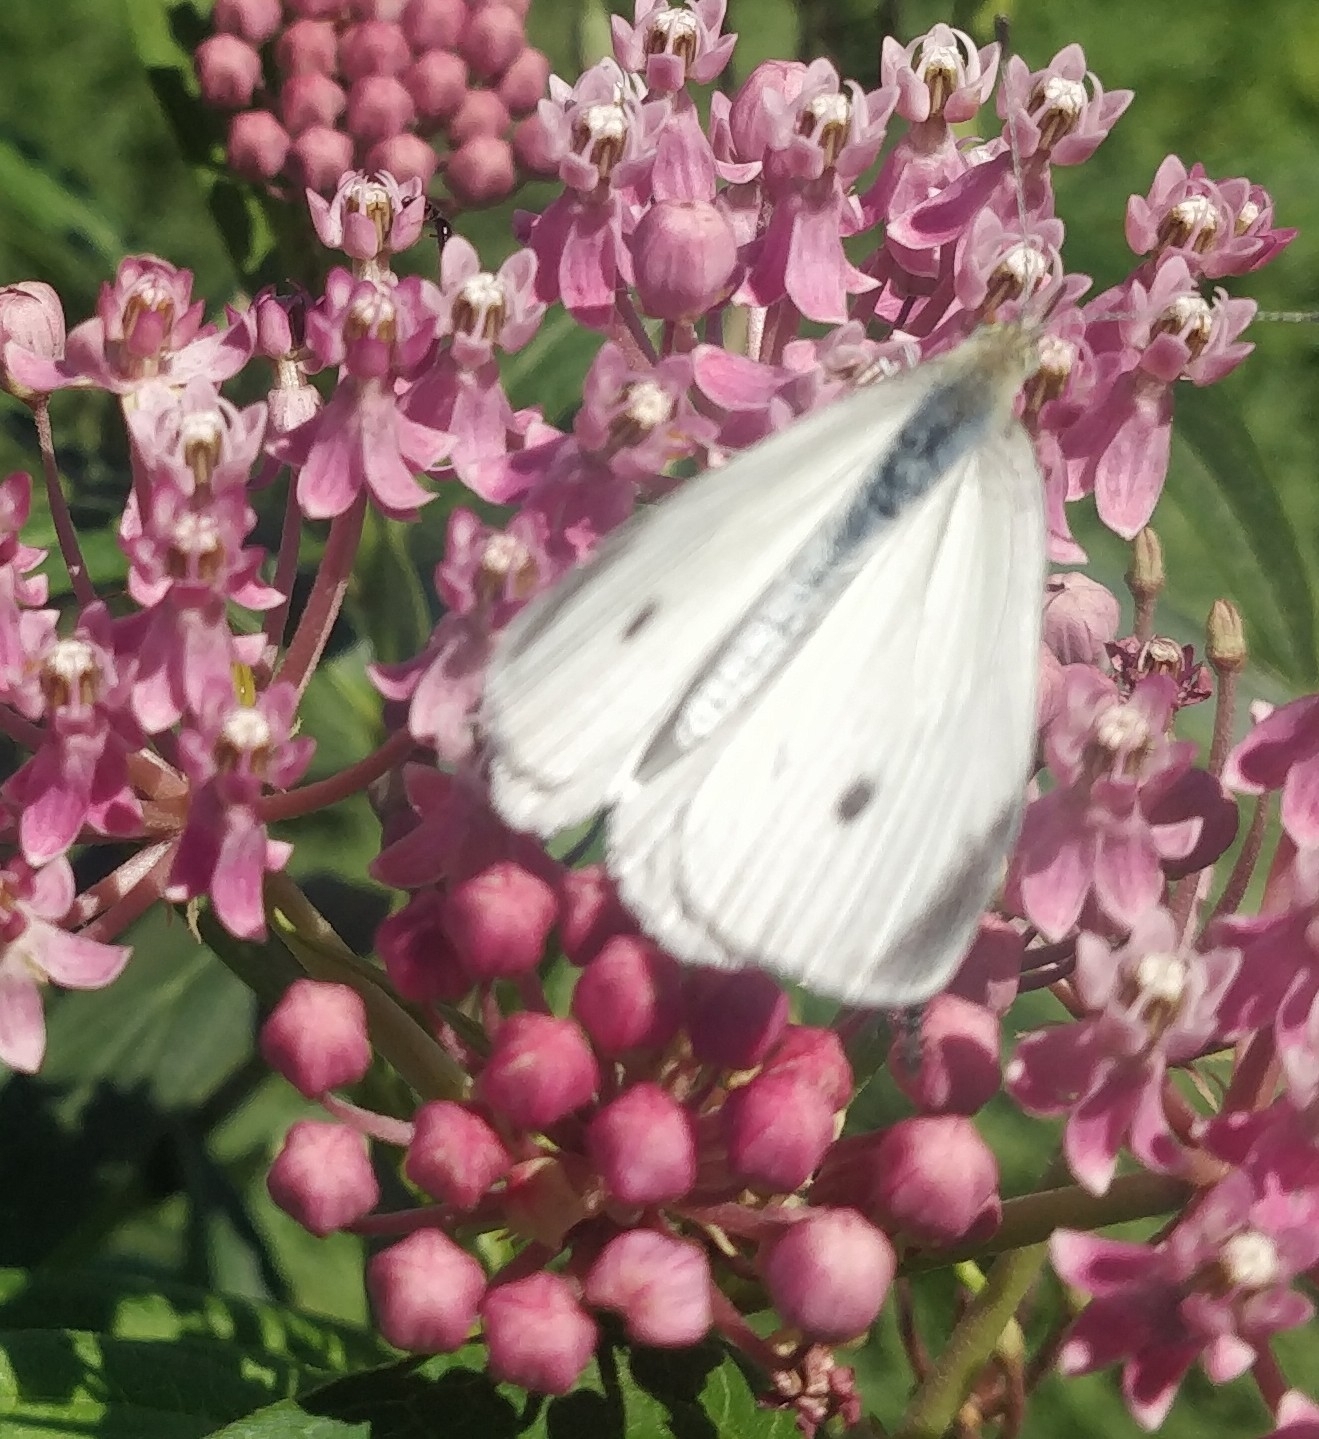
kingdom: Animalia
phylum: Arthropoda
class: Insecta
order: Lepidoptera
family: Pieridae
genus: Pieris
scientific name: Pieris rapae
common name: Small white
